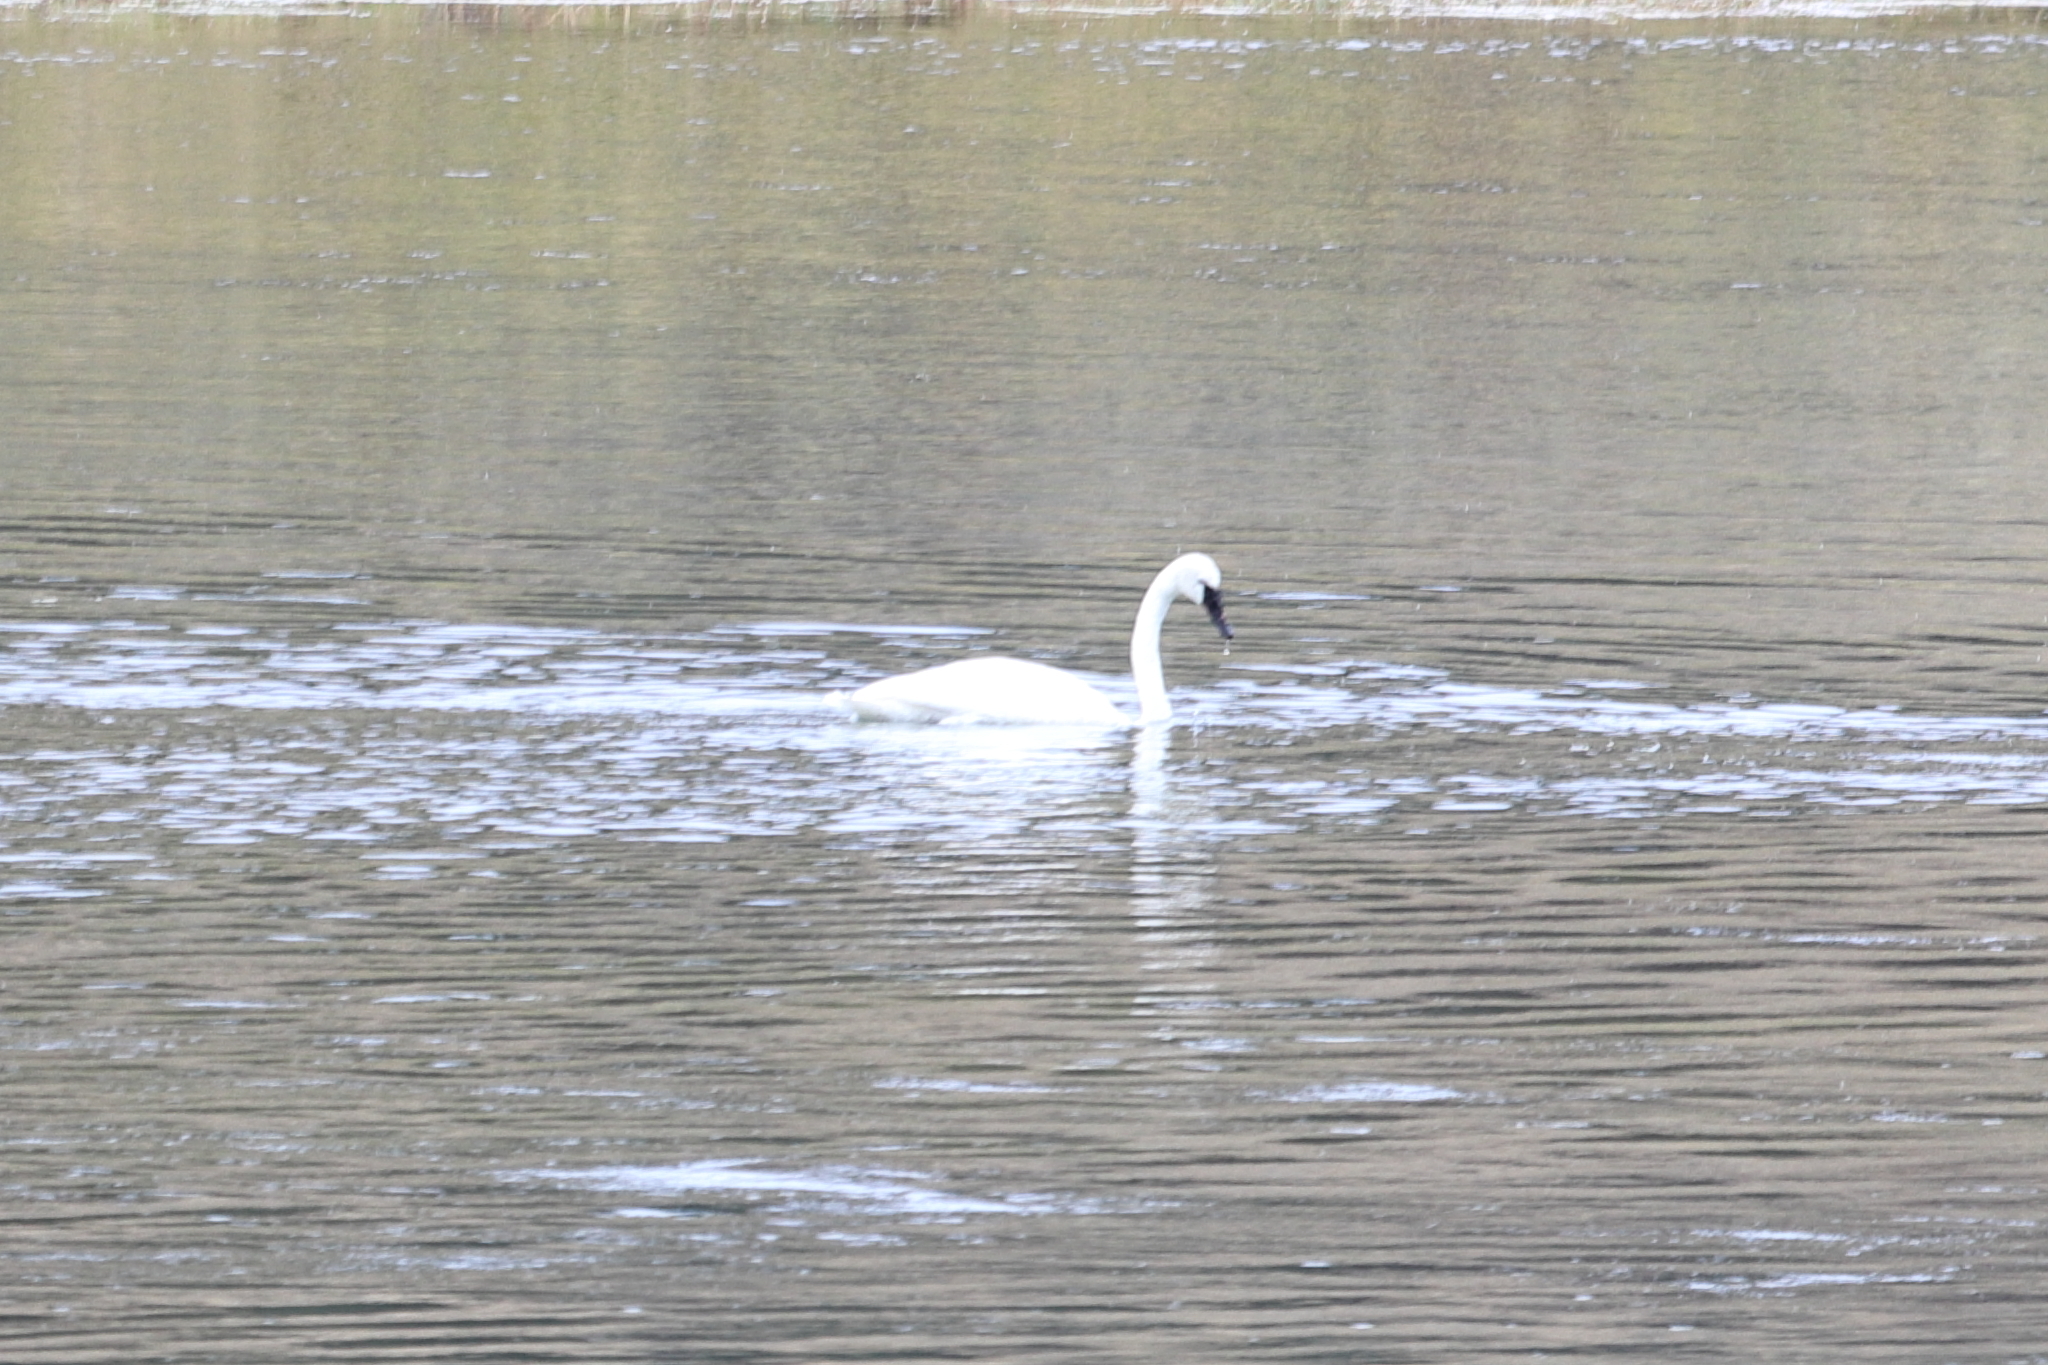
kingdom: Animalia
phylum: Chordata
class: Aves
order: Anseriformes
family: Anatidae
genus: Cygnus
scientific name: Cygnus buccinator
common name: Trumpeter swan
